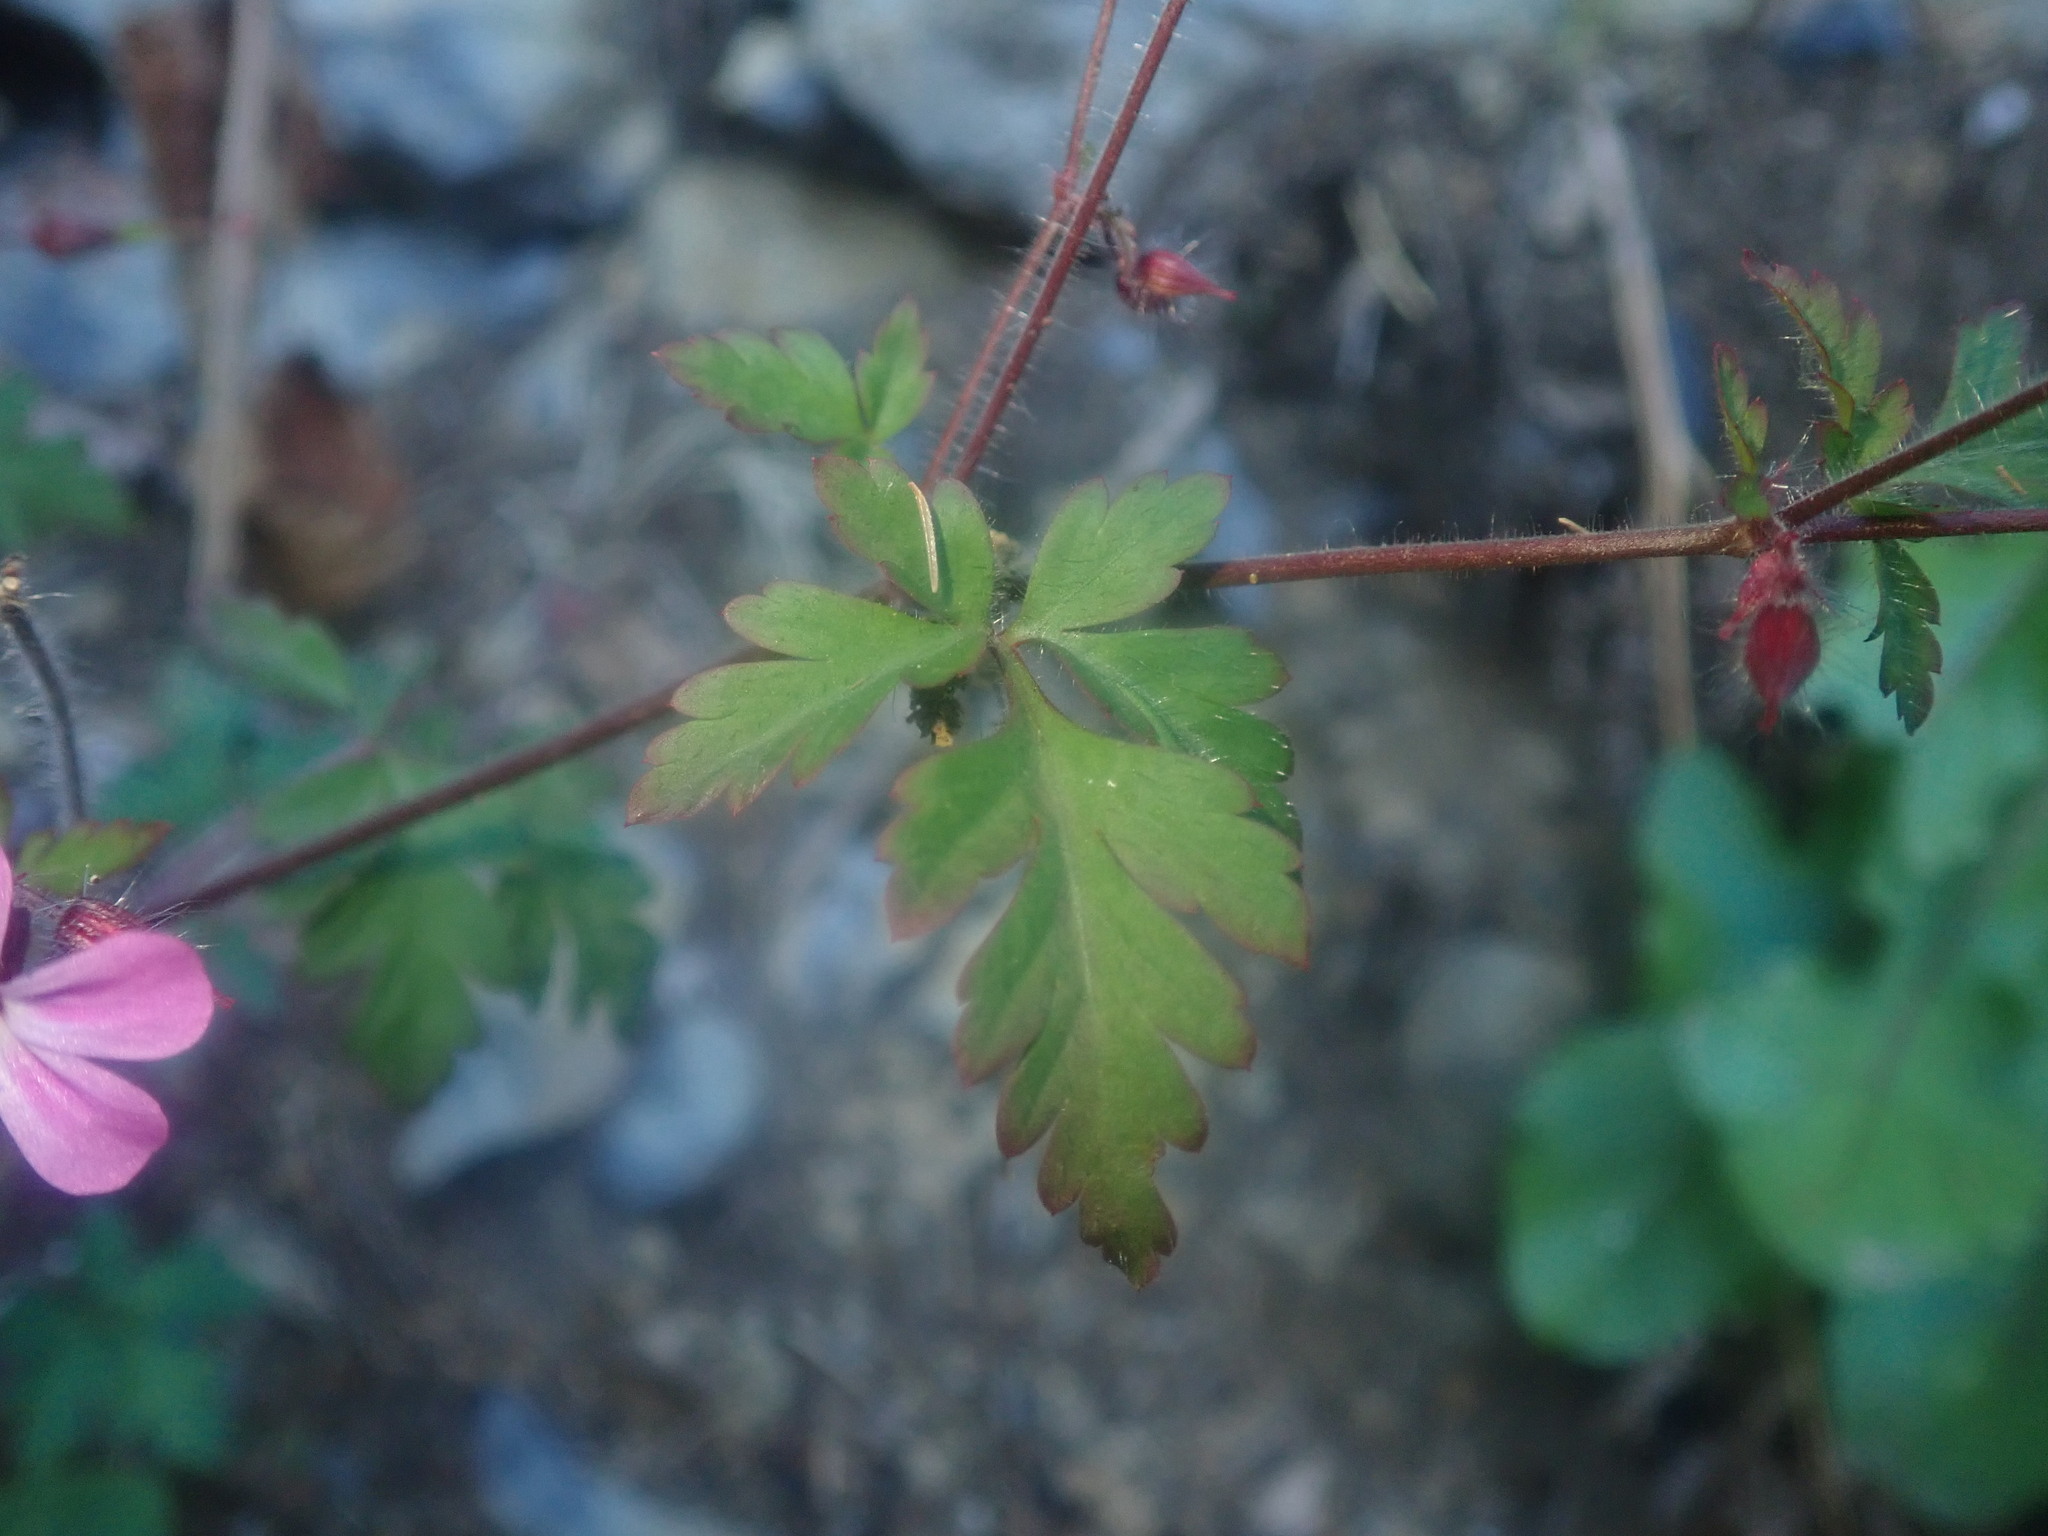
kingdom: Plantae
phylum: Tracheophyta
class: Magnoliopsida
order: Geraniales
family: Geraniaceae
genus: Geranium
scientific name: Geranium robertianum
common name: Herb-robert
